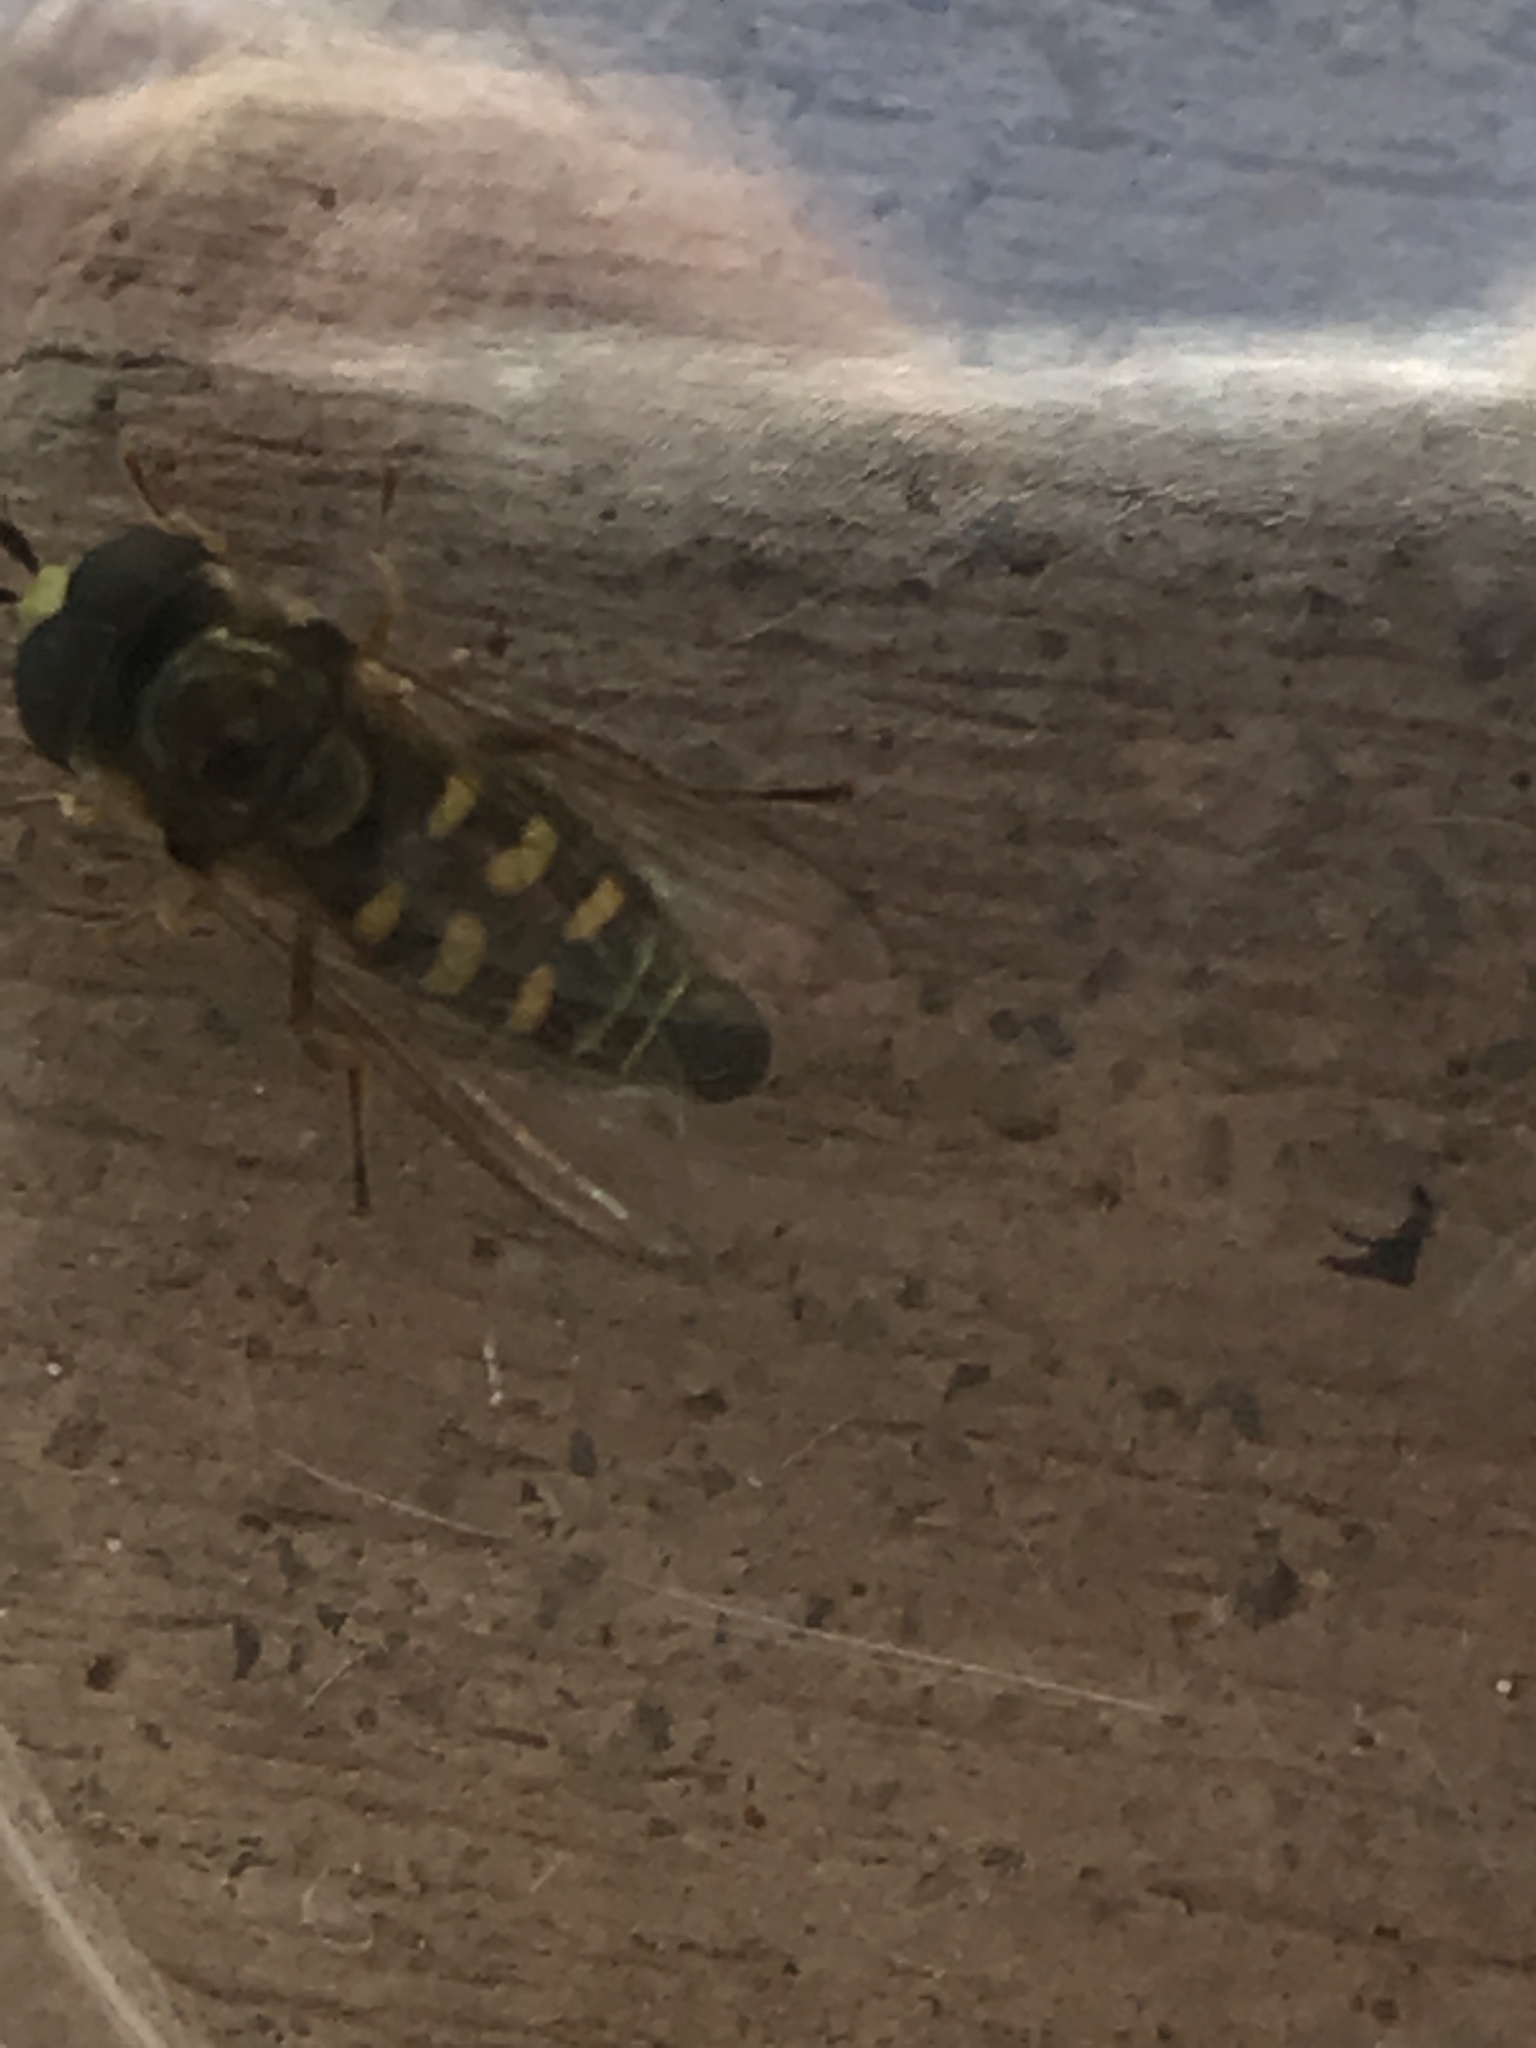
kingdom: Animalia
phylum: Arthropoda
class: Insecta
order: Diptera
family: Syrphidae
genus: Eupeodes
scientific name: Eupeodes volucris
